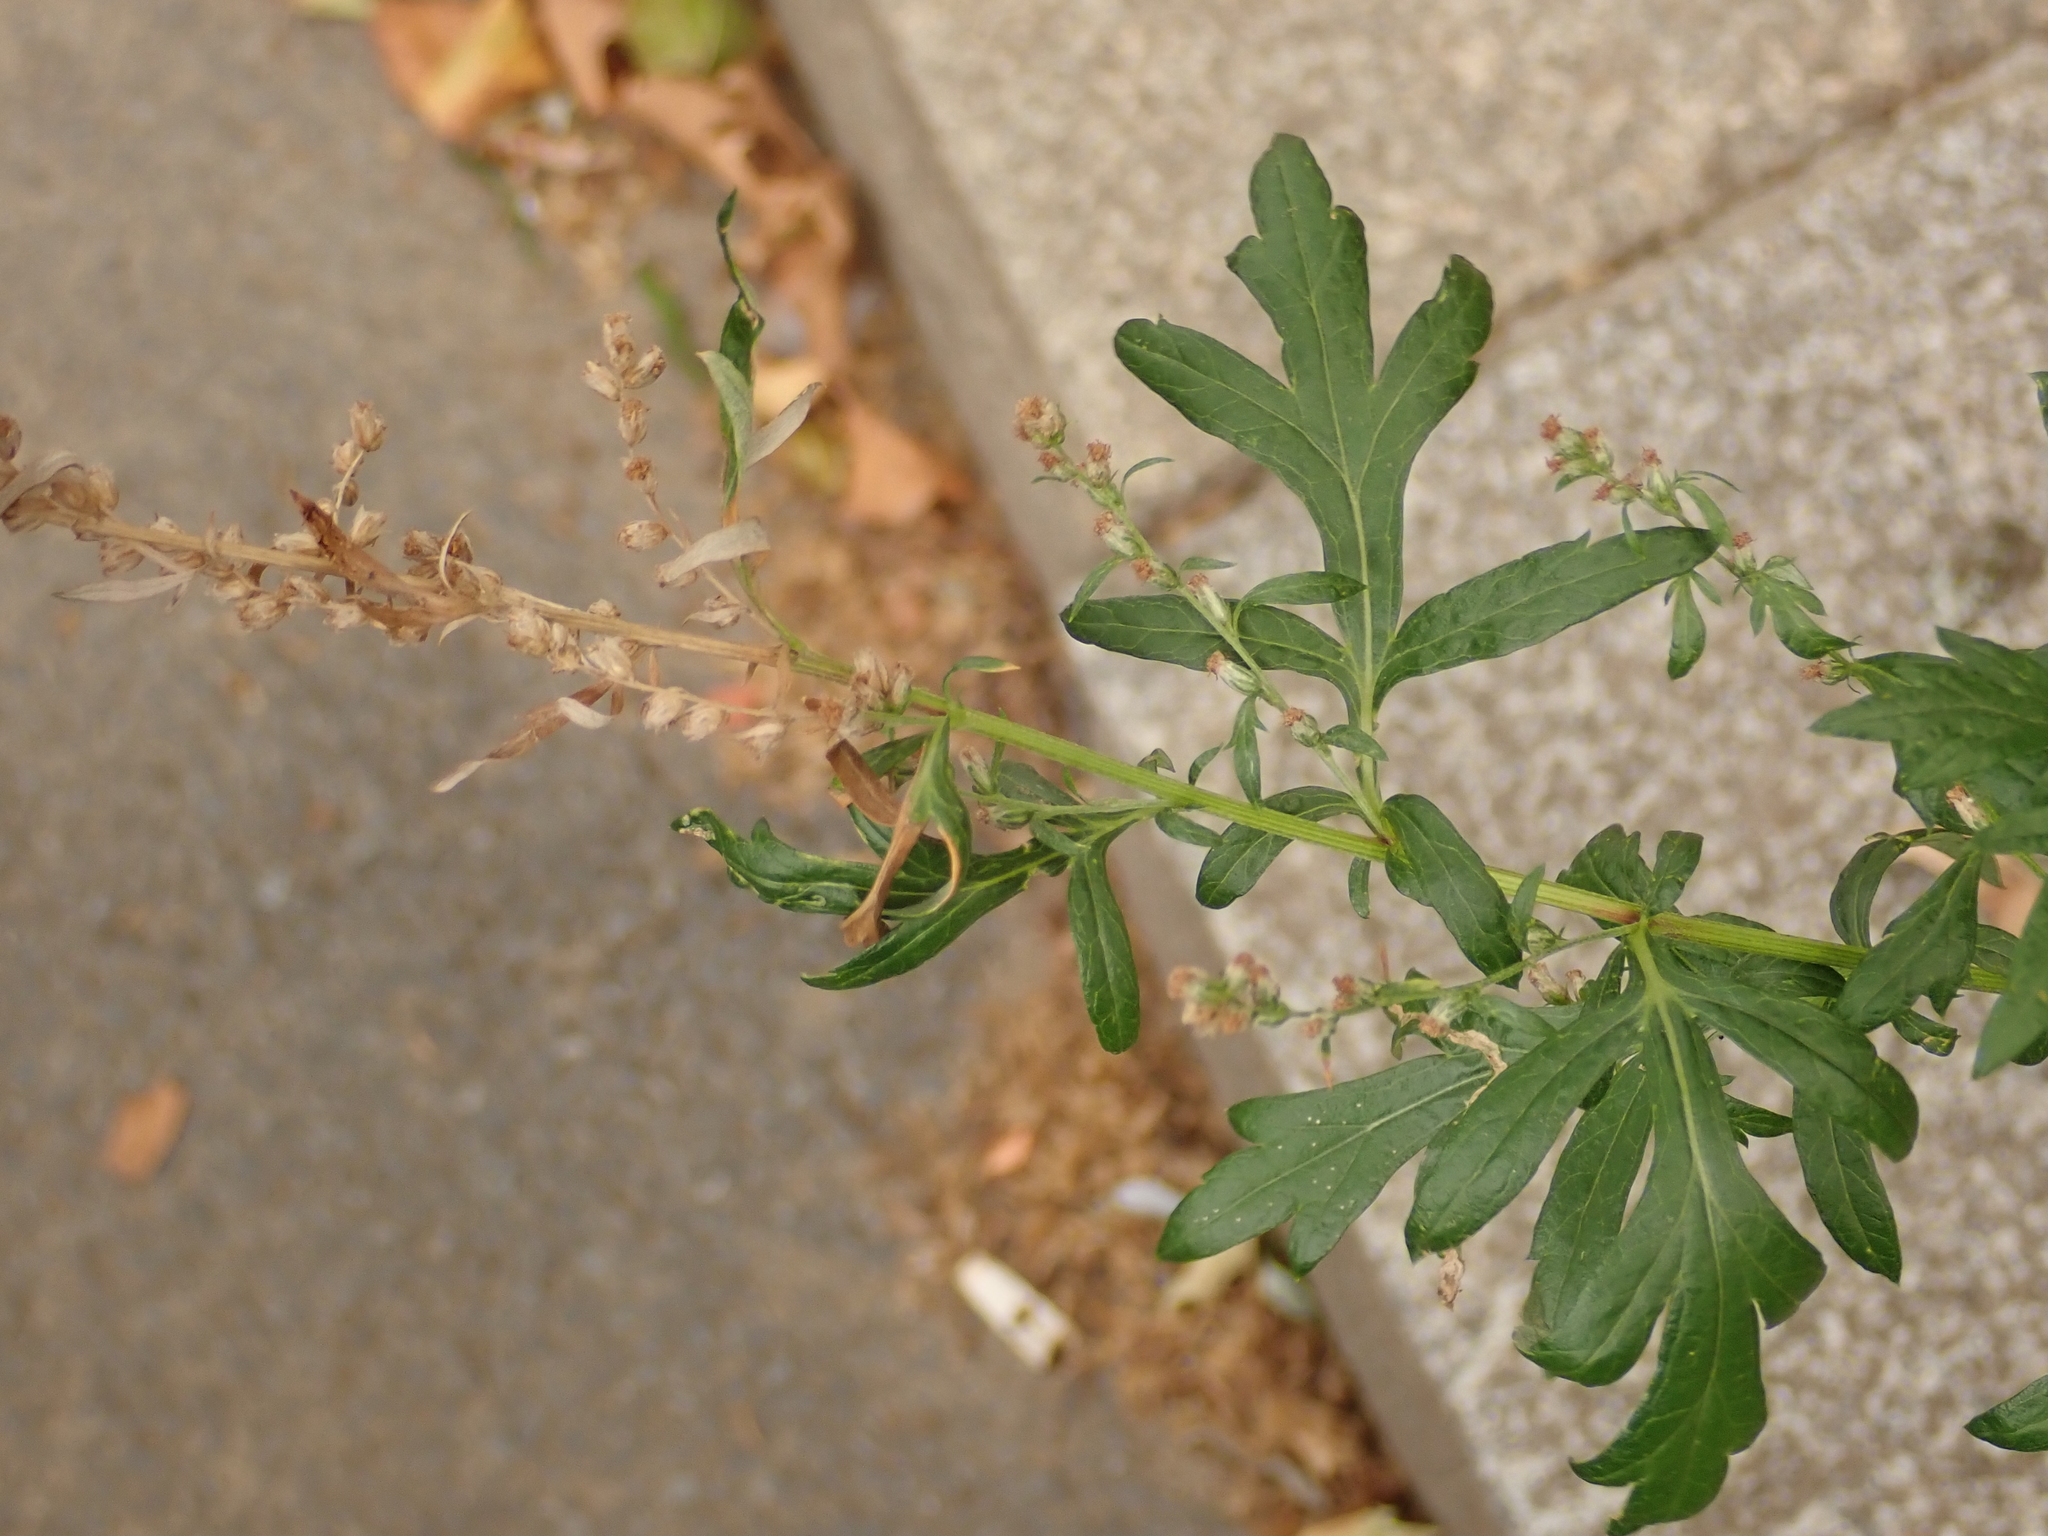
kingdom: Plantae
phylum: Tracheophyta
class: Magnoliopsida
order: Asterales
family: Asteraceae
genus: Artemisia
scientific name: Artemisia vulgaris
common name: Mugwort
